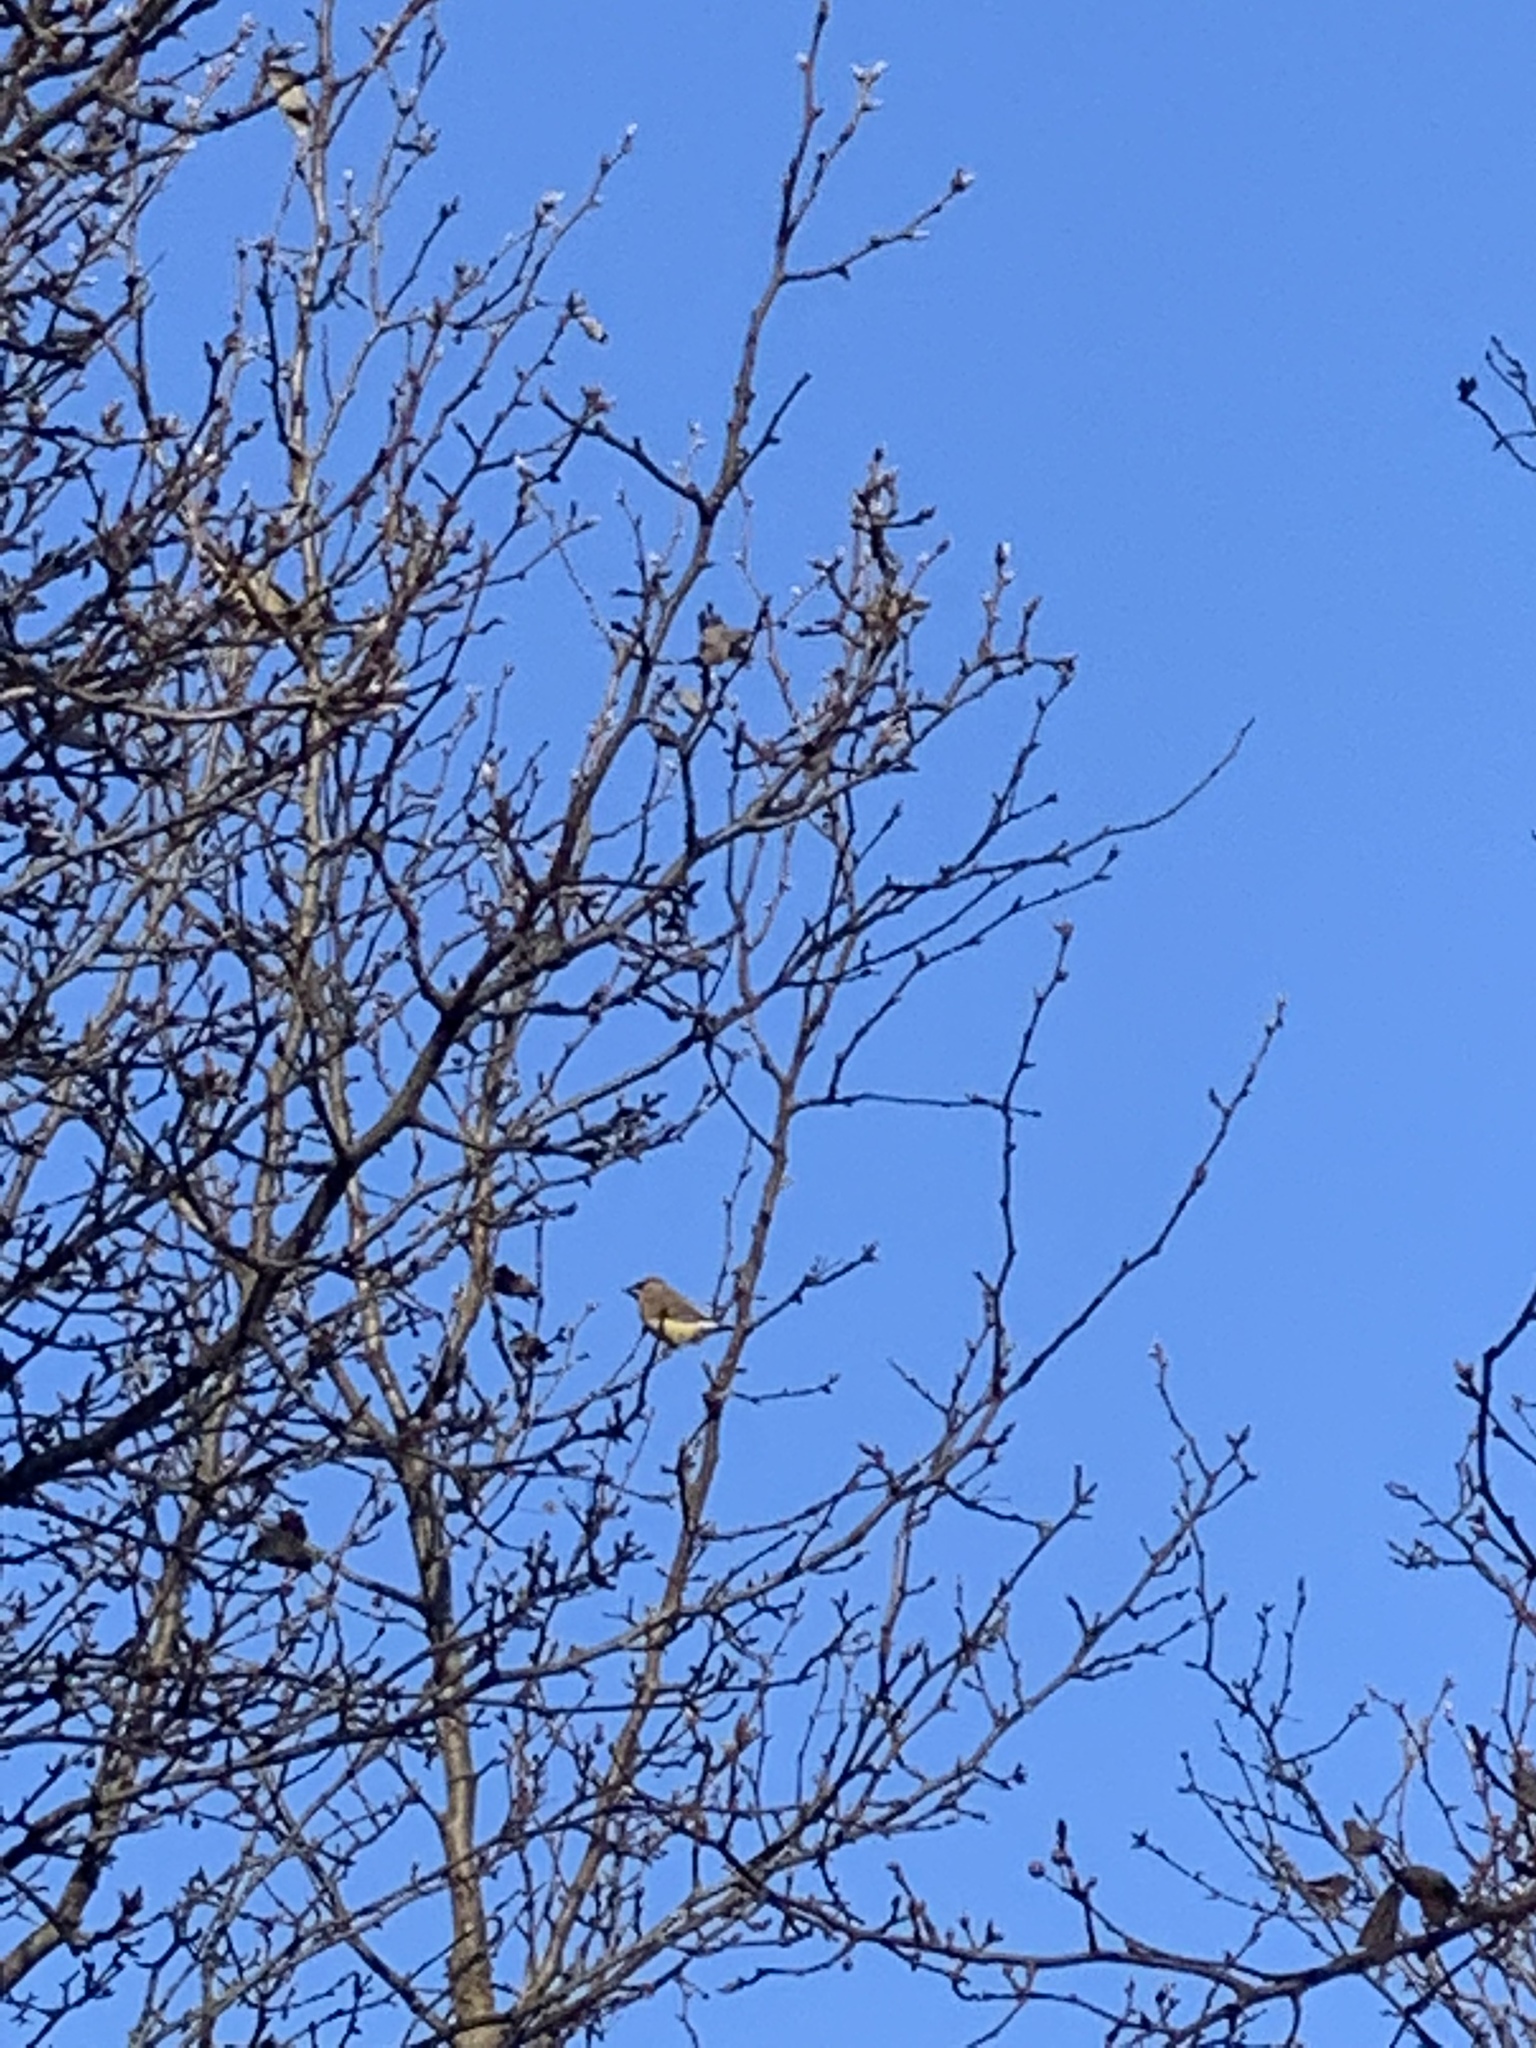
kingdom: Animalia
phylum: Chordata
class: Aves
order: Passeriformes
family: Bombycillidae
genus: Bombycilla
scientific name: Bombycilla cedrorum
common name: Cedar waxwing
